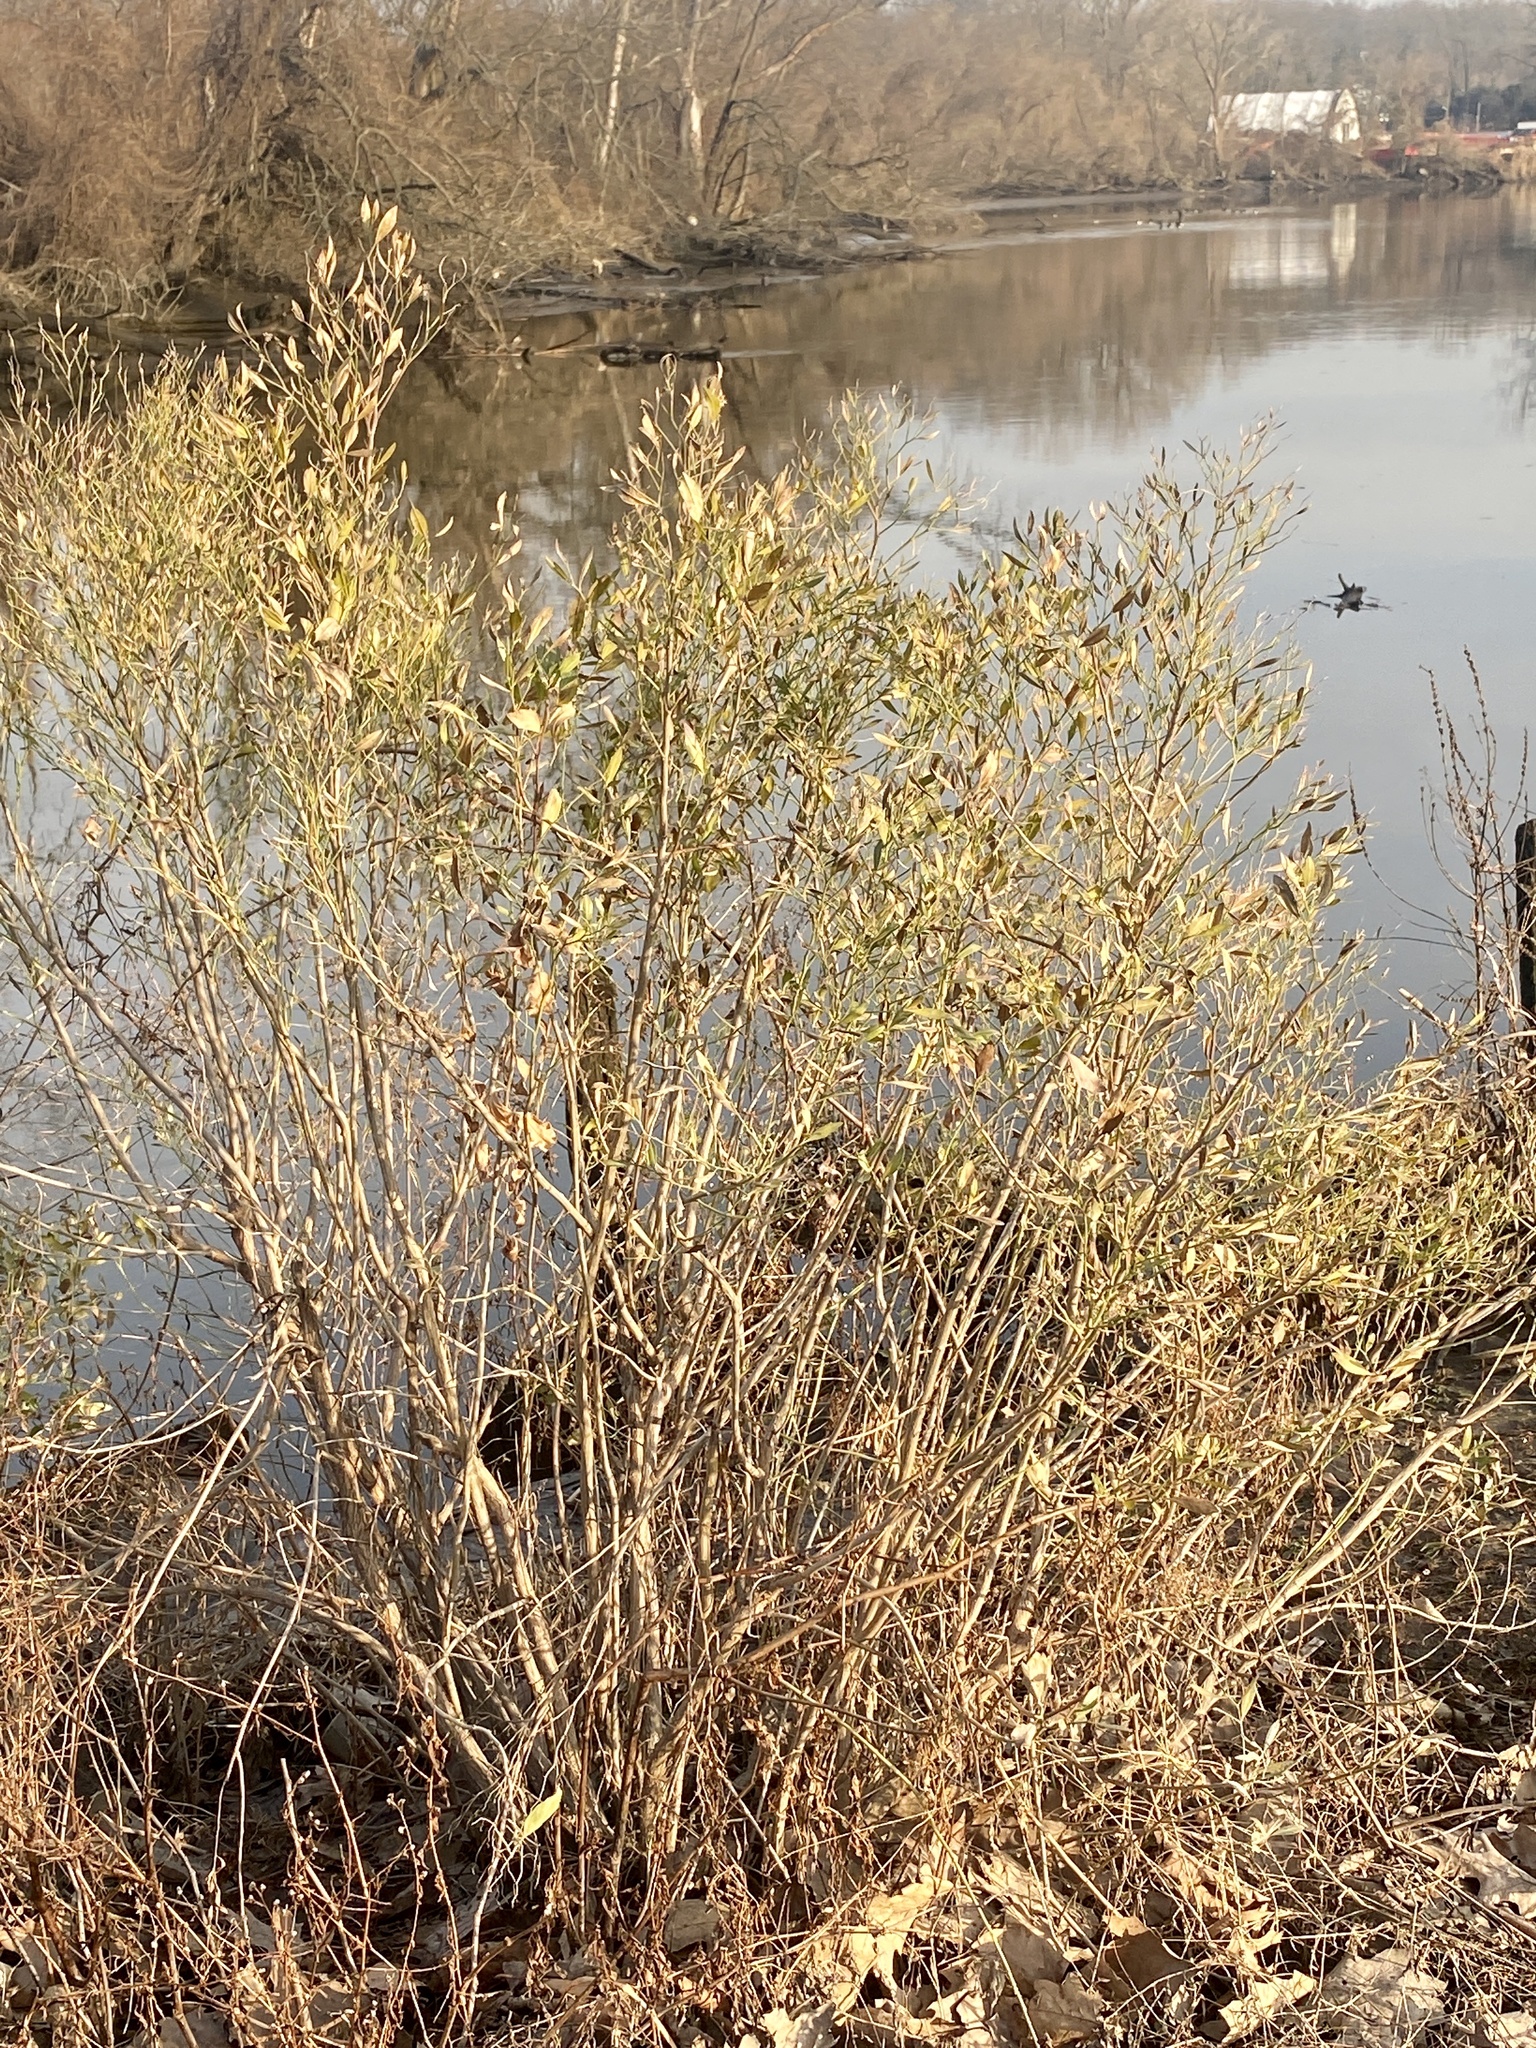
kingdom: Plantae
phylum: Tracheophyta
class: Magnoliopsida
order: Asterales
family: Asteraceae
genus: Baccharis
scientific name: Baccharis halimifolia
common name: Eastern baccharis
